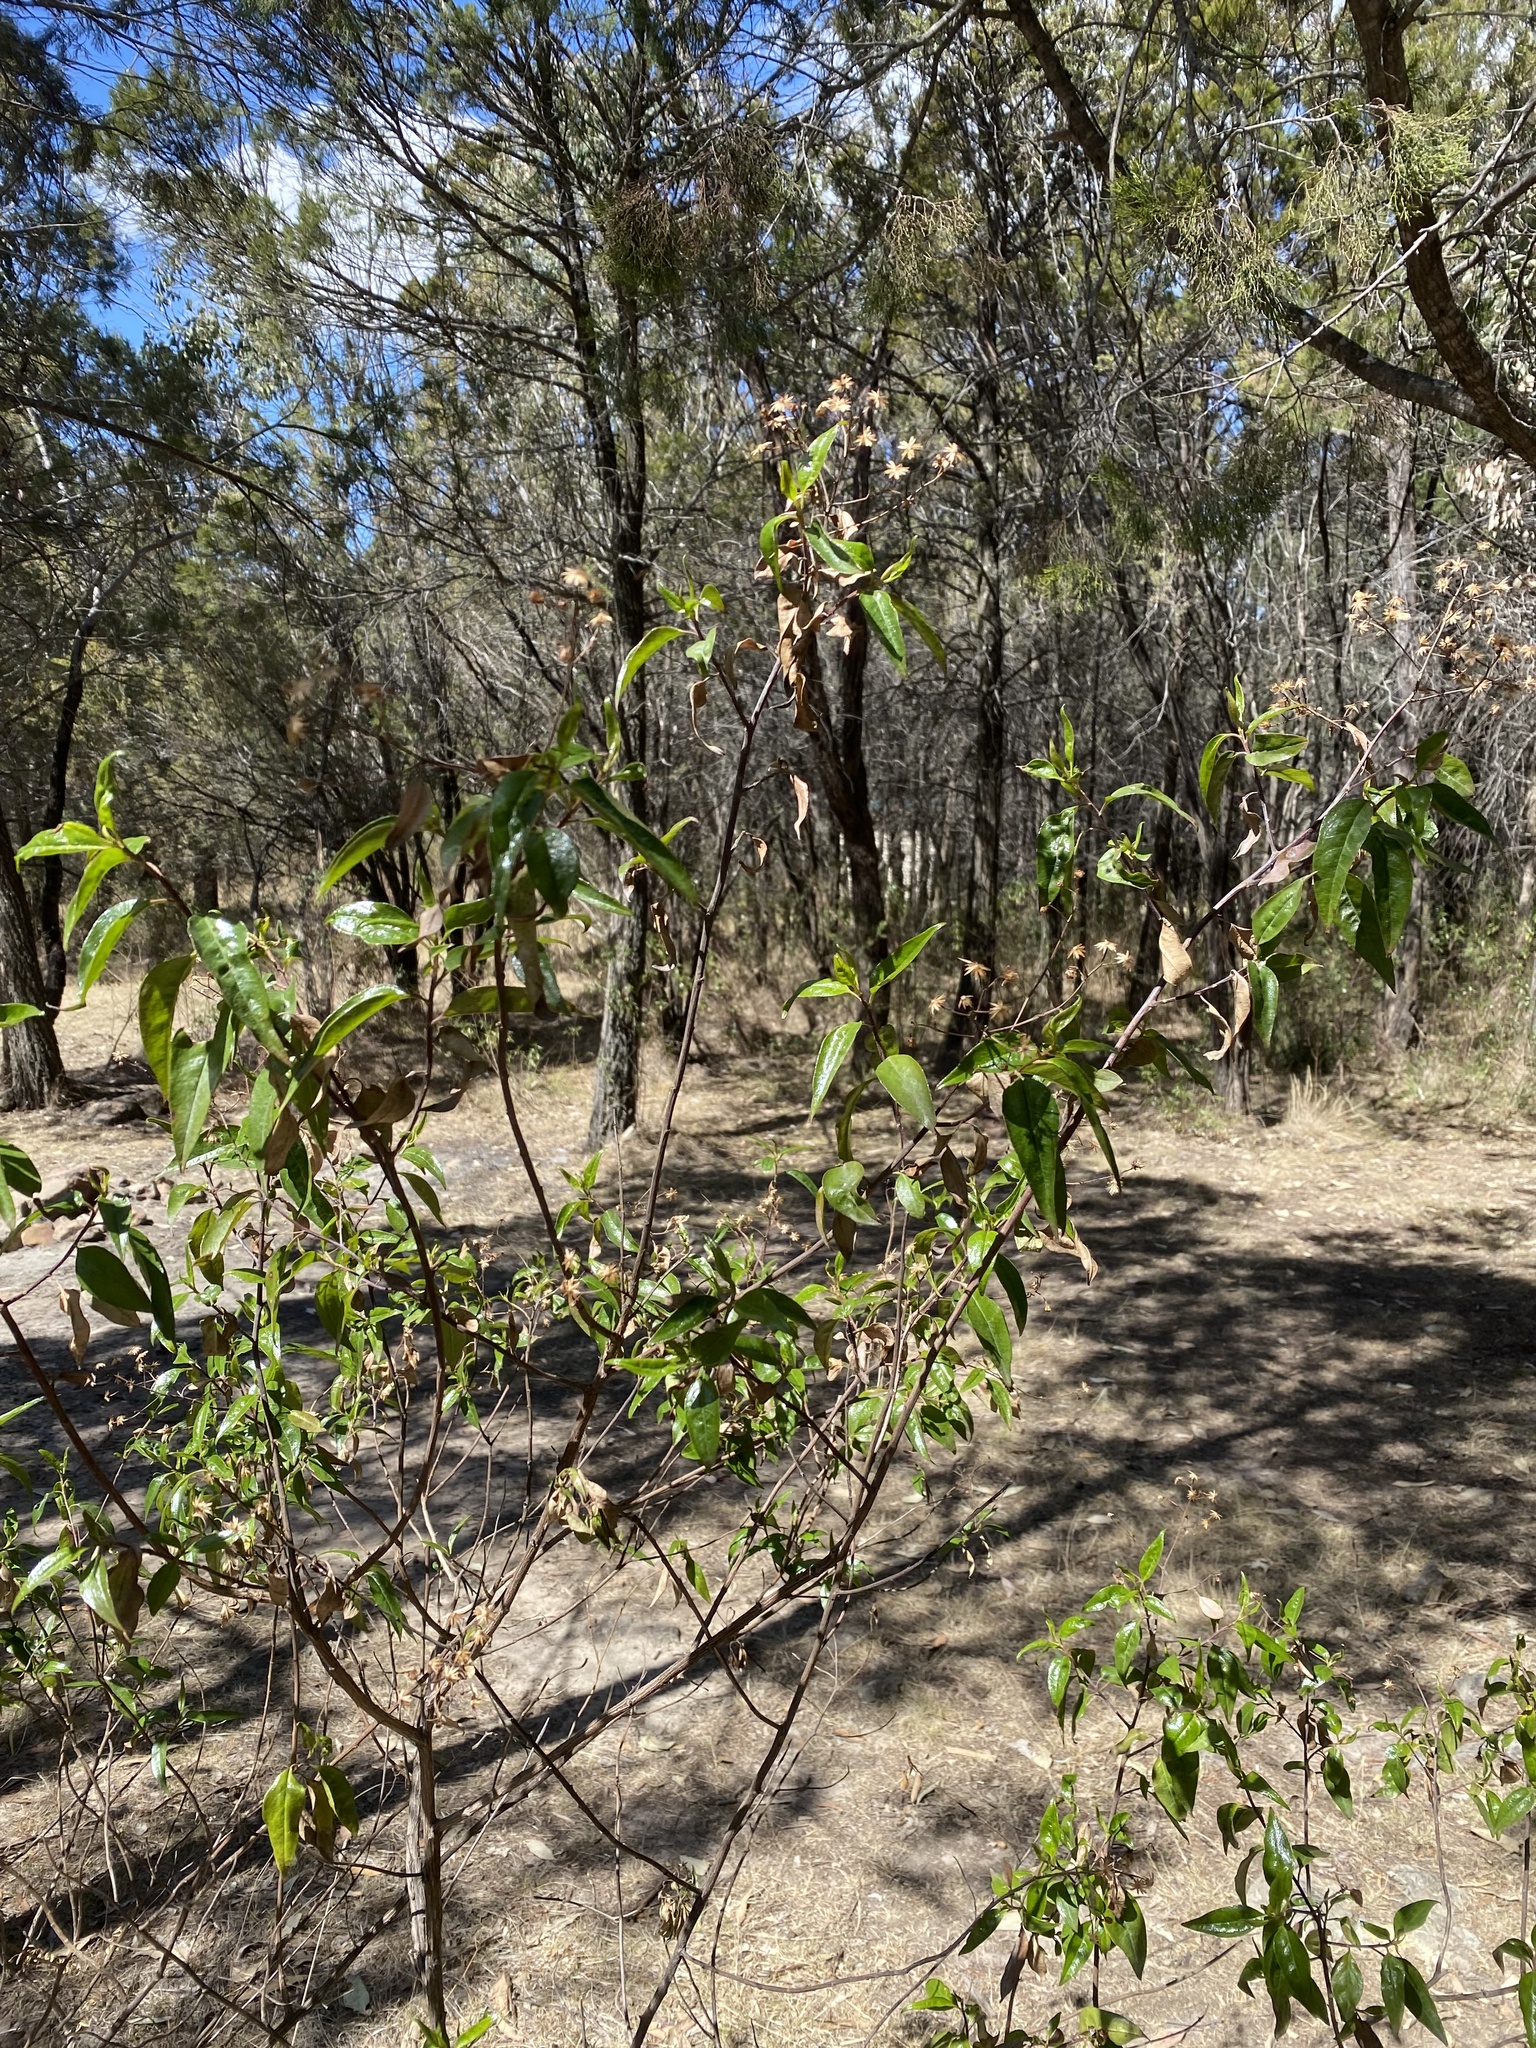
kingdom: Plantae
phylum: Tracheophyta
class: Magnoliopsida
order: Asterales
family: Asteraceae
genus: Phaseolaster
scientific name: Phaseolaster fulgens
